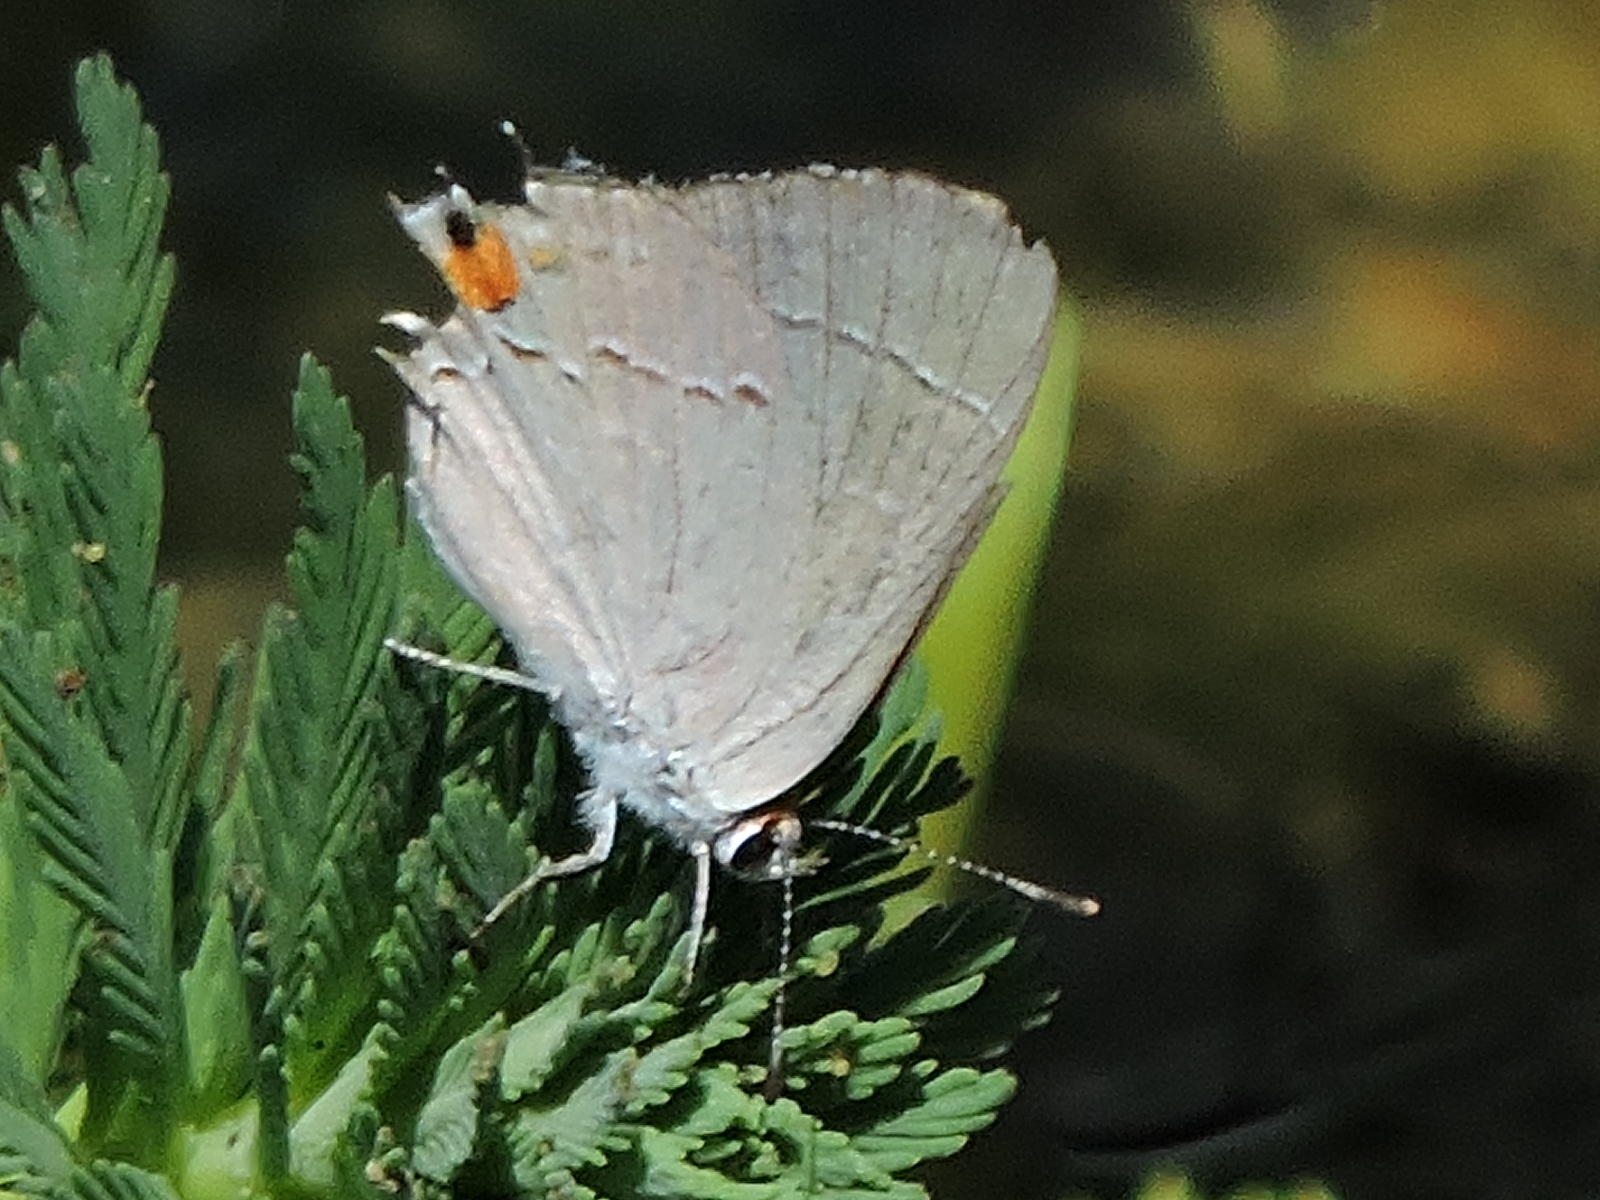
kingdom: Animalia
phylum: Arthropoda
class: Insecta
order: Lepidoptera
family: Lycaenidae
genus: Strymon
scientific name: Strymon melinus
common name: Gray hairstreak
